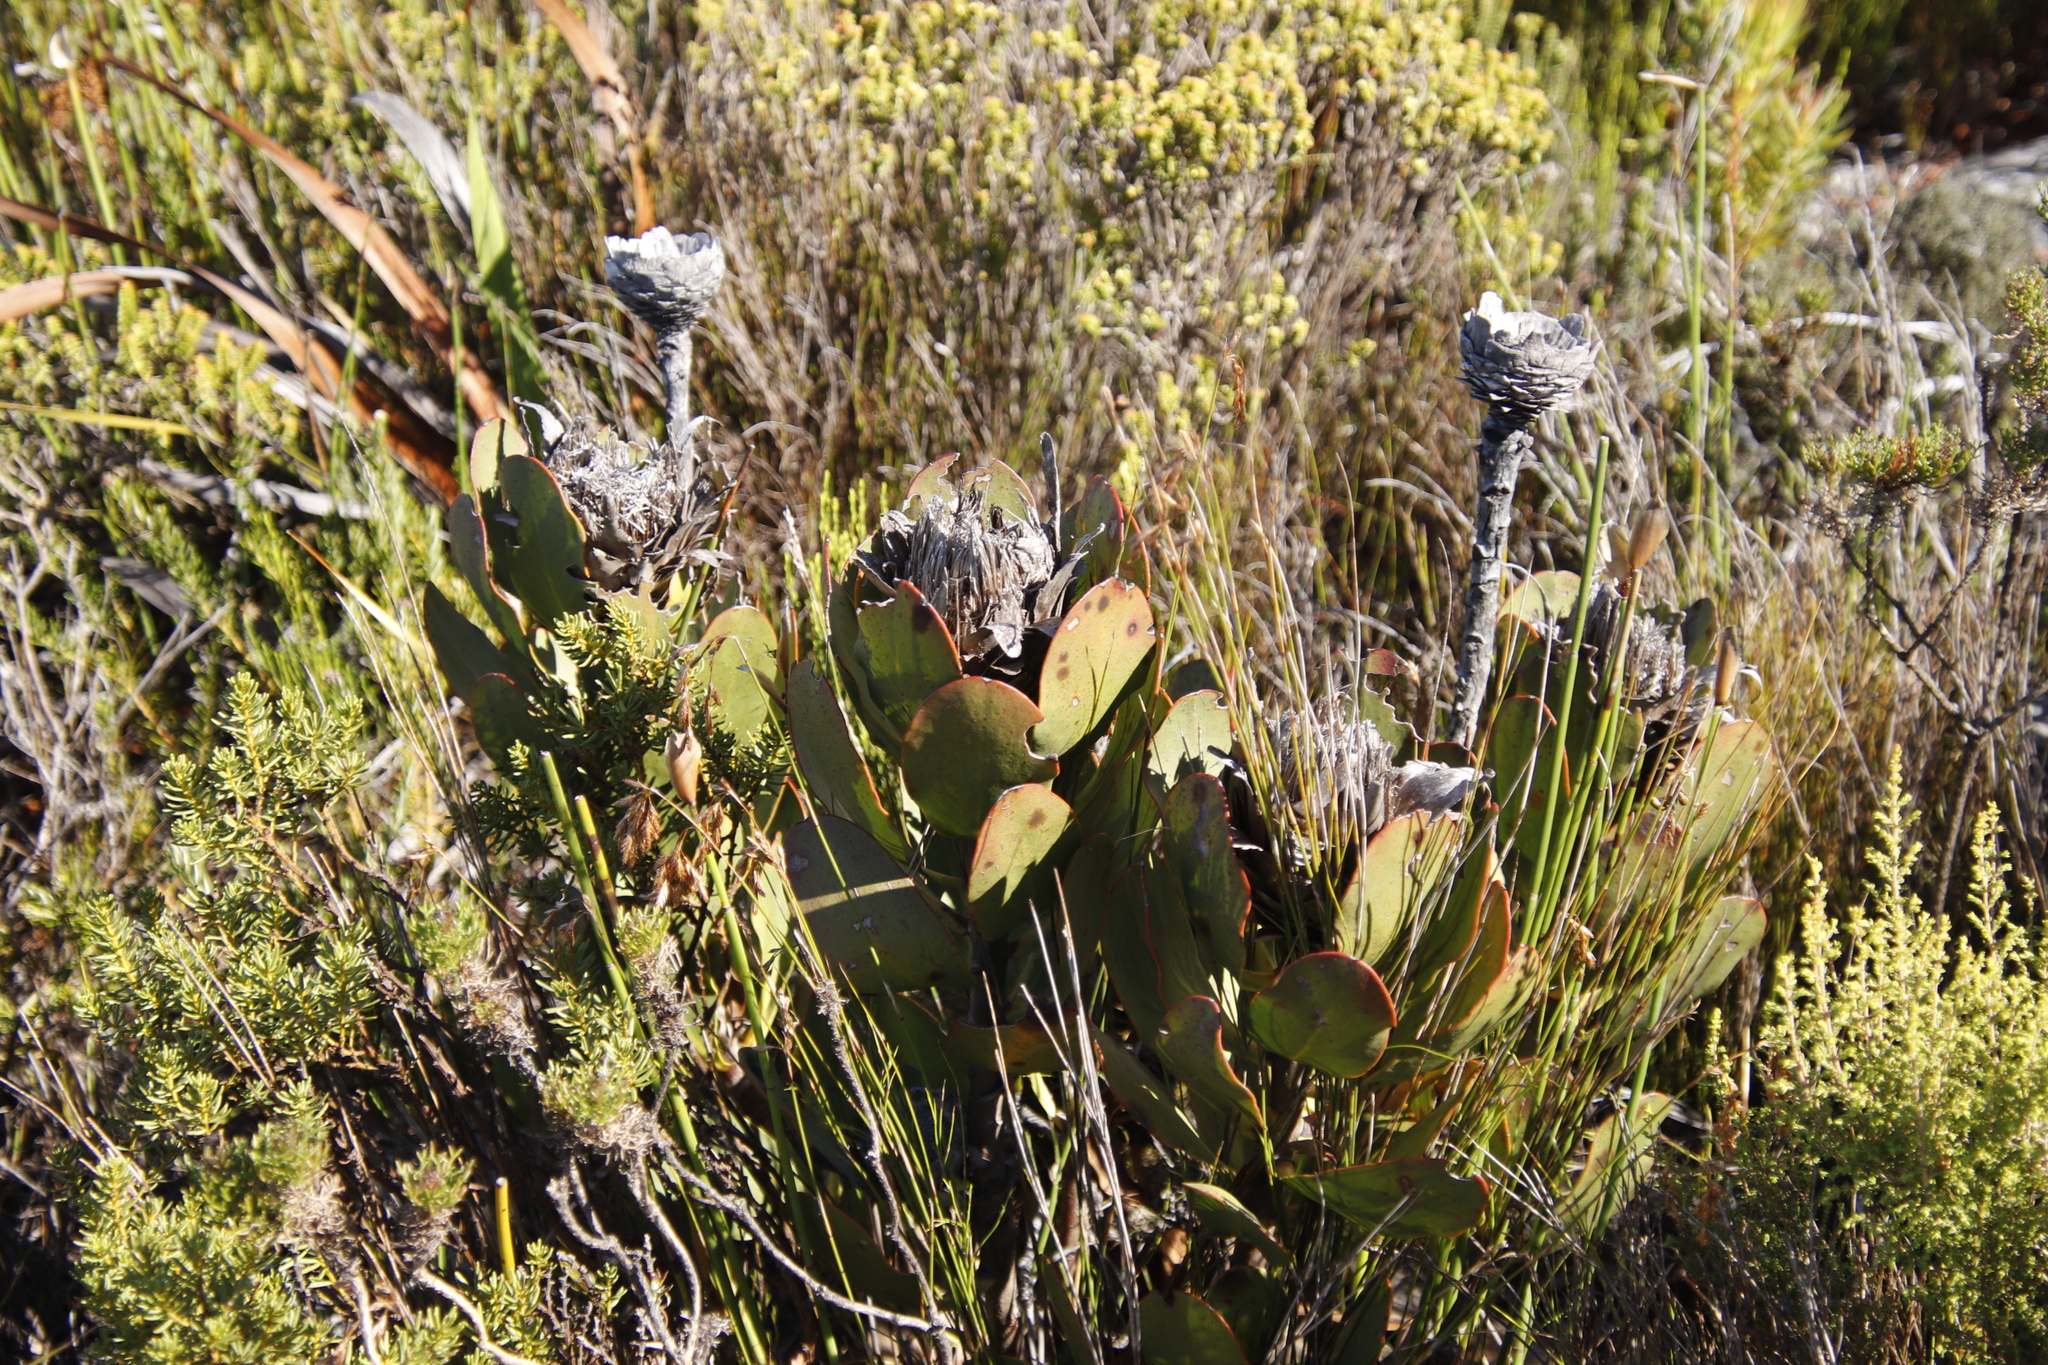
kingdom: Plantae
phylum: Tracheophyta
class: Magnoliopsida
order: Proteales
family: Proteaceae
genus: Protea
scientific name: Protea speciosa
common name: Brown-beard sugarbush
